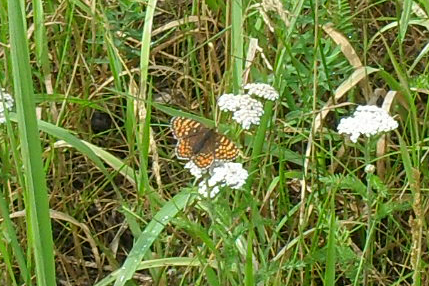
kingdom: Animalia
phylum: Arthropoda
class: Insecta
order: Lepidoptera
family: Nymphalidae
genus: Melitaea
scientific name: Melitaea phoebe
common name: Knapweed fritillary
